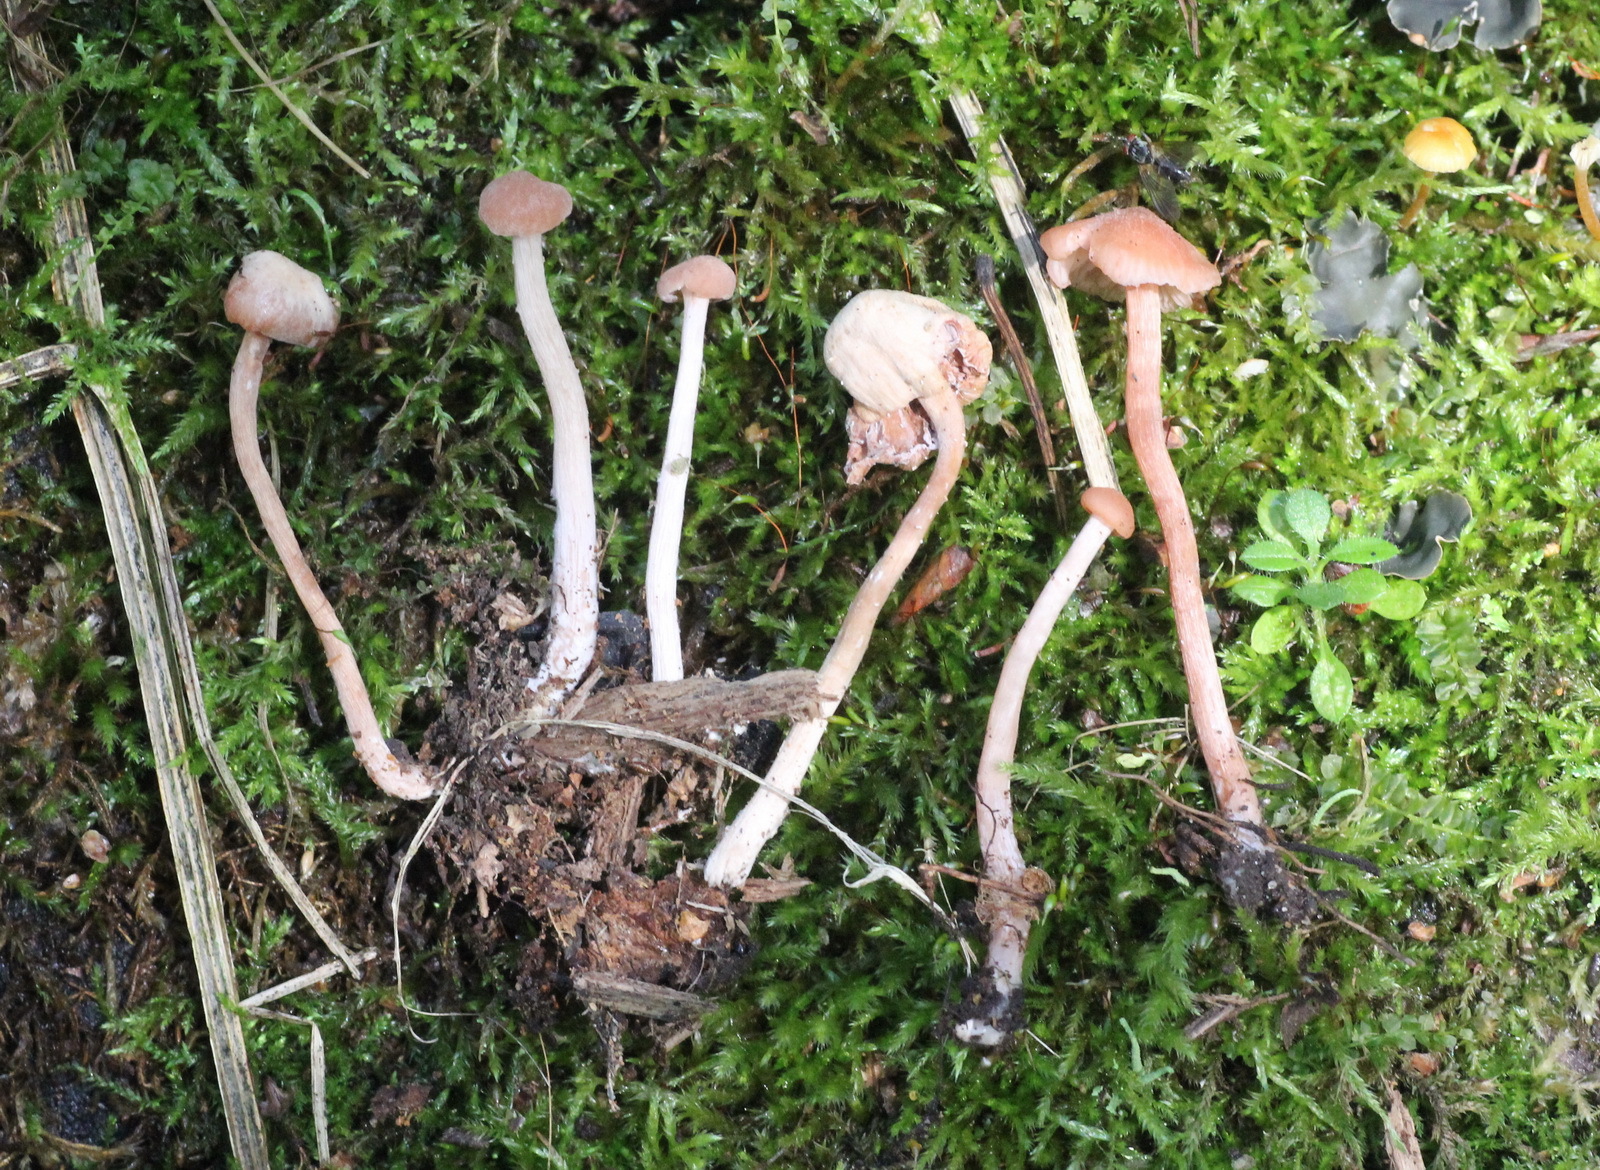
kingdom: Fungi
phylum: Basidiomycota
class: Agaricomycetes
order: Agaricales
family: Hydnangiaceae
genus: Laccaria
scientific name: Laccaria laccata
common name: Deceiver
